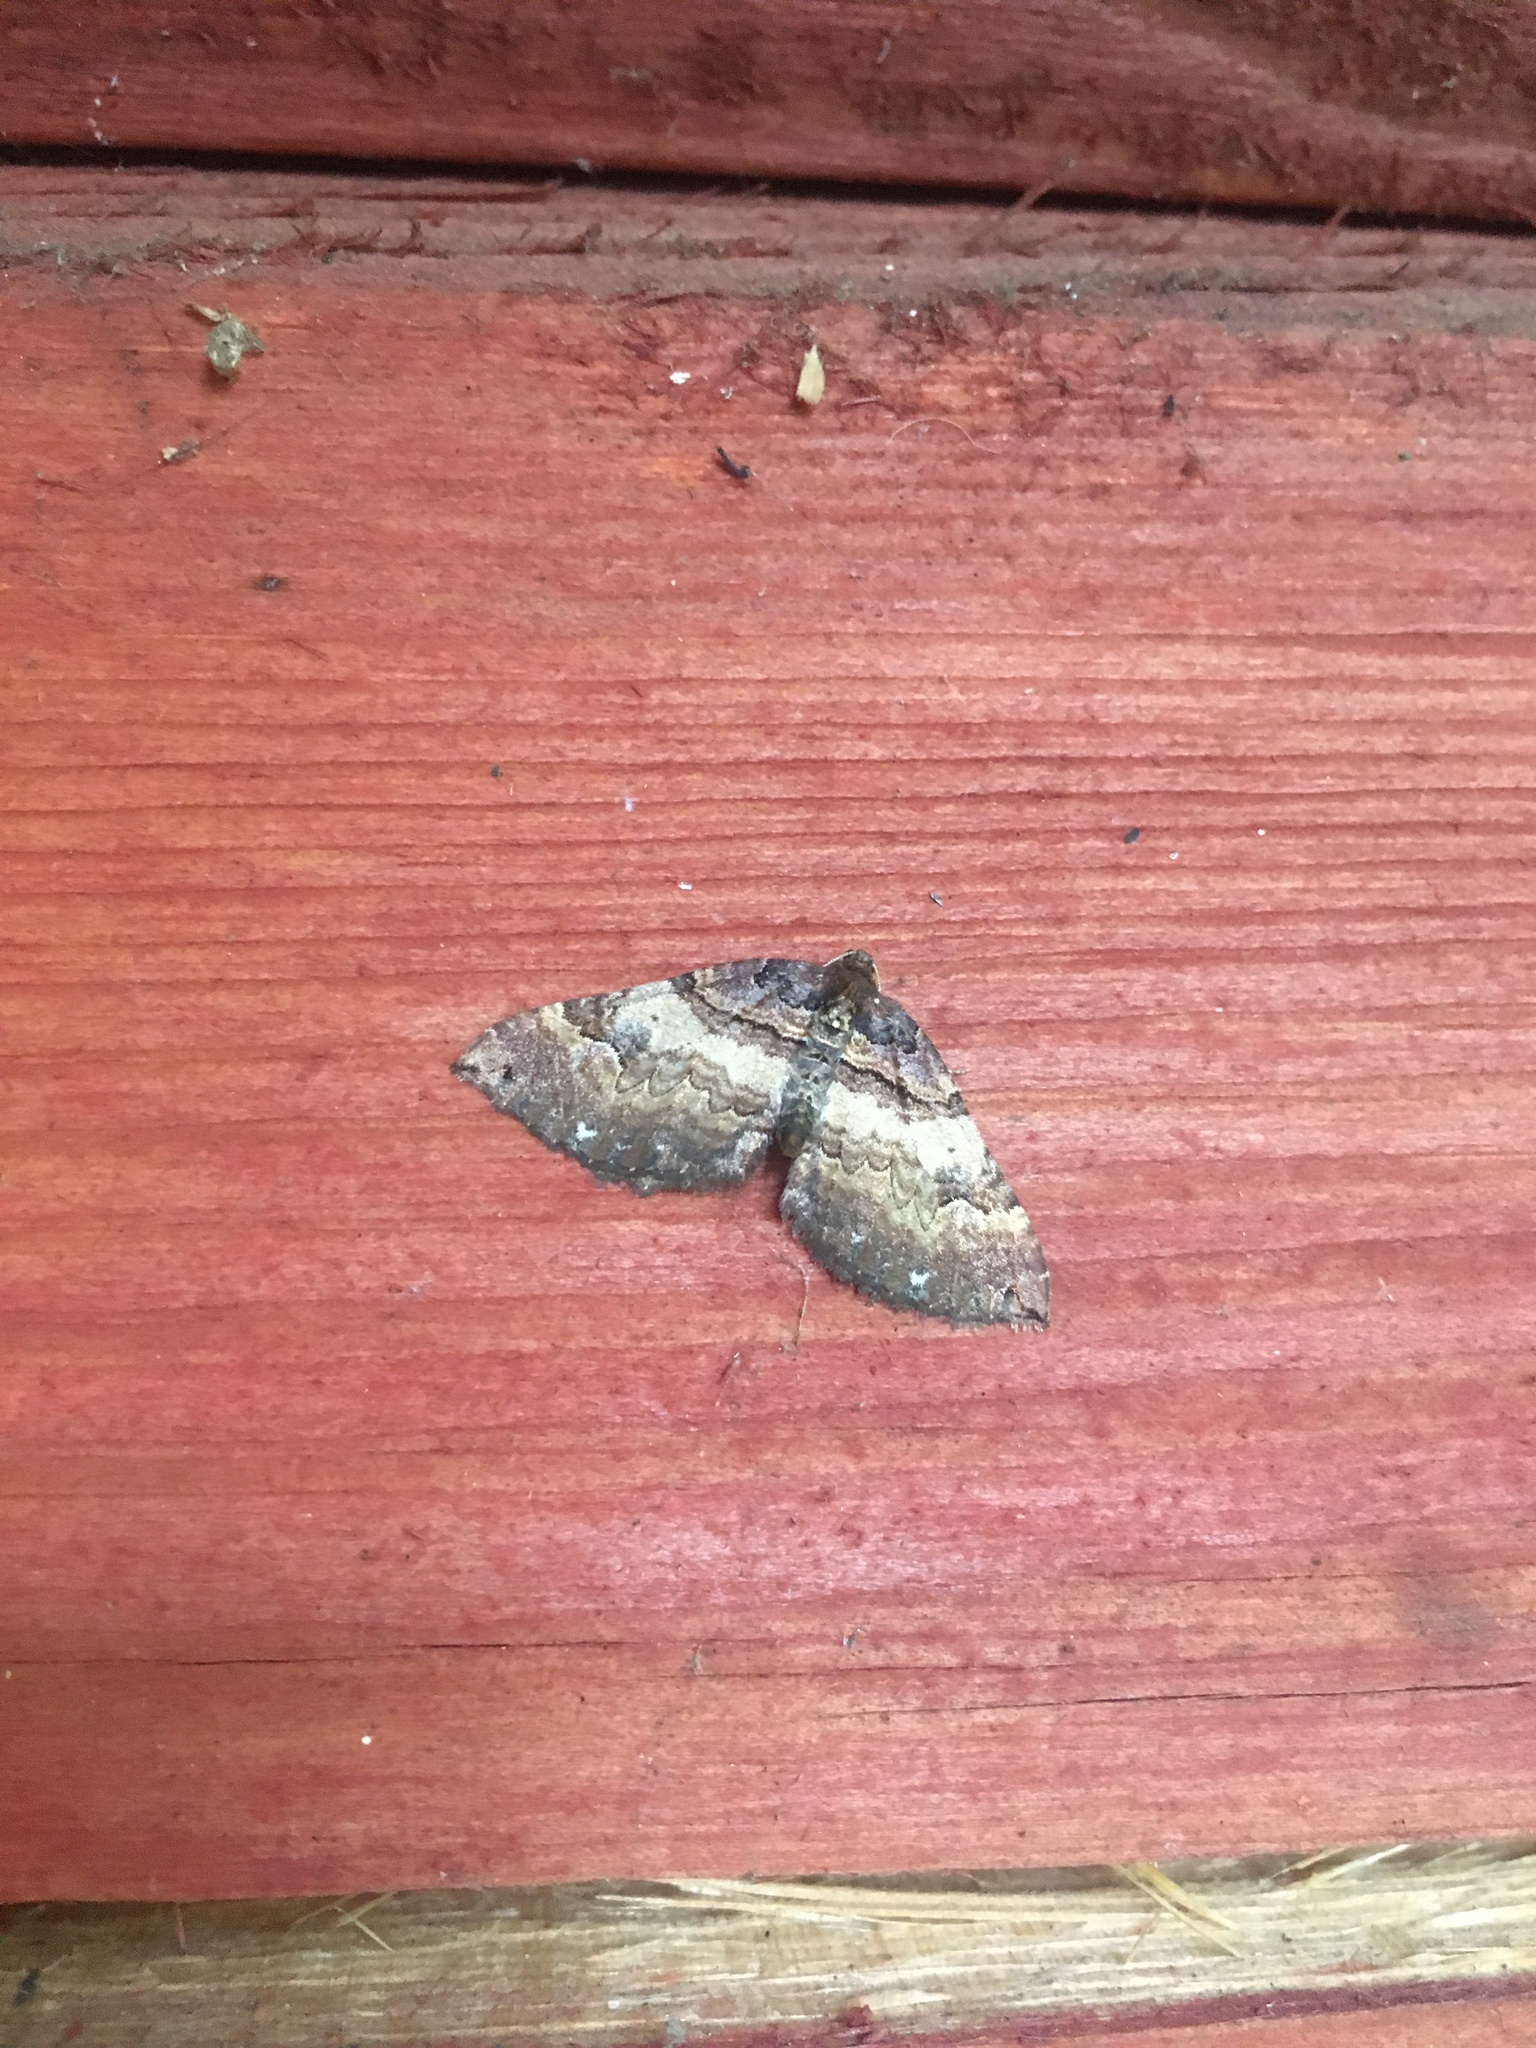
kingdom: Animalia
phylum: Arthropoda
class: Insecta
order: Lepidoptera
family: Geometridae
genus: Anticlea
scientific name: Anticlea badiata
